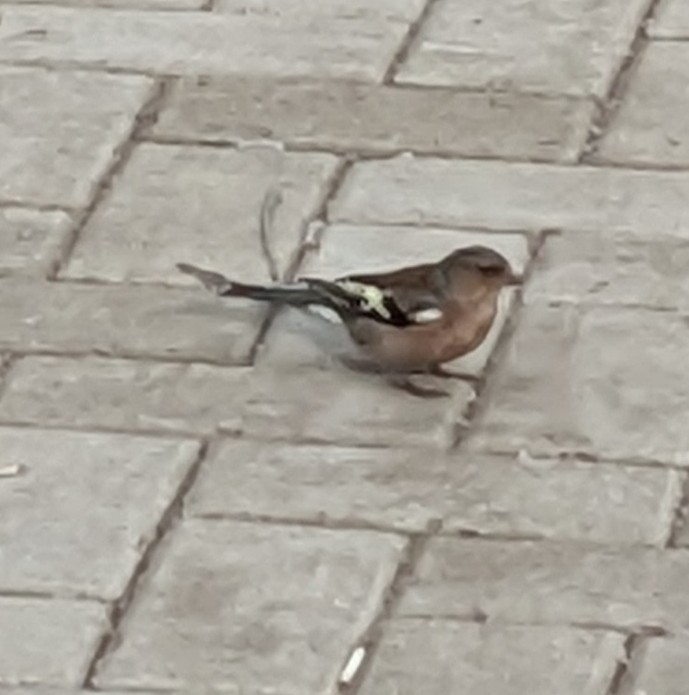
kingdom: Animalia
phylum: Chordata
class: Aves
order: Passeriformes
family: Fringillidae
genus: Fringilla
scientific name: Fringilla coelebs
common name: Common chaffinch
